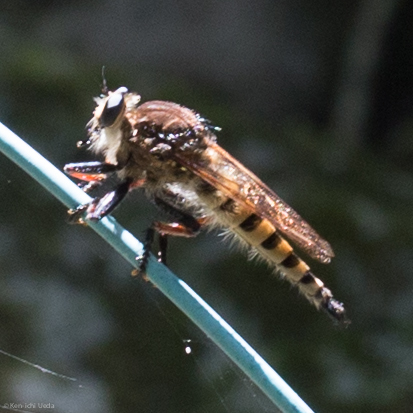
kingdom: Animalia
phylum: Arthropoda
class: Insecta
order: Diptera
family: Asilidae
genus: Promachus
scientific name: Promachus rufipes
